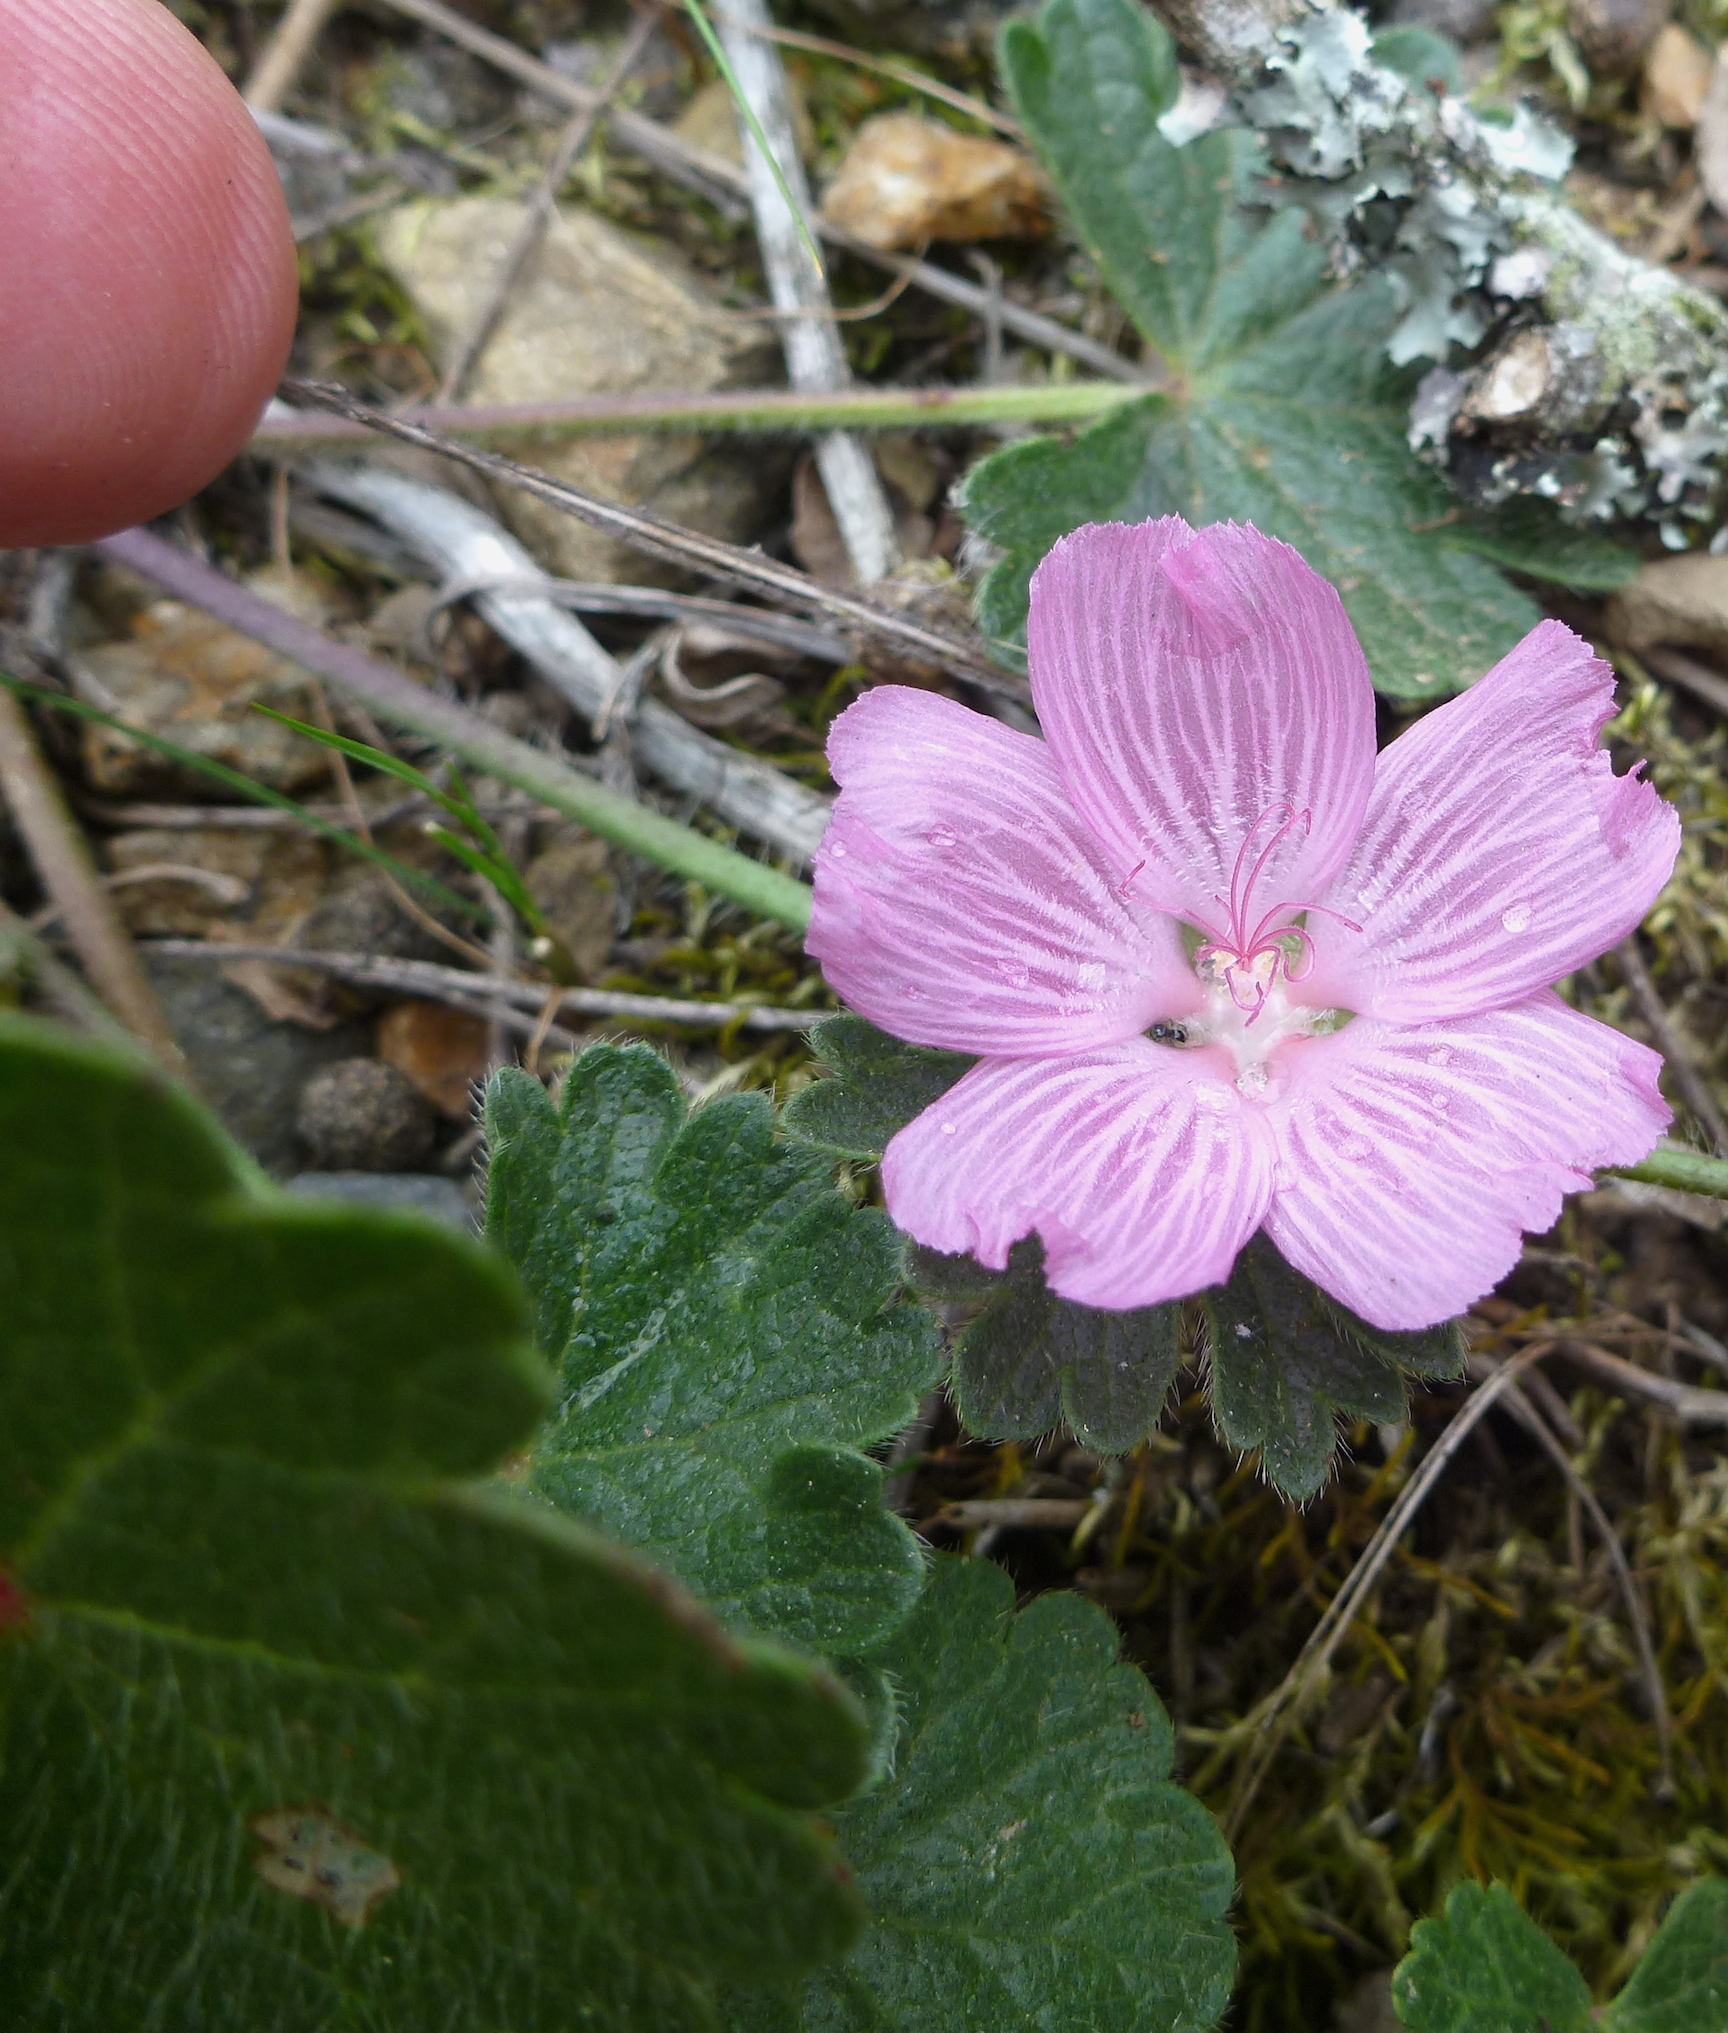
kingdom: Plantae
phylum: Tracheophyta
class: Magnoliopsida
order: Malvales
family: Malvaceae
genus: Sidalcea
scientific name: Sidalcea malviflora
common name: Greek mallow
